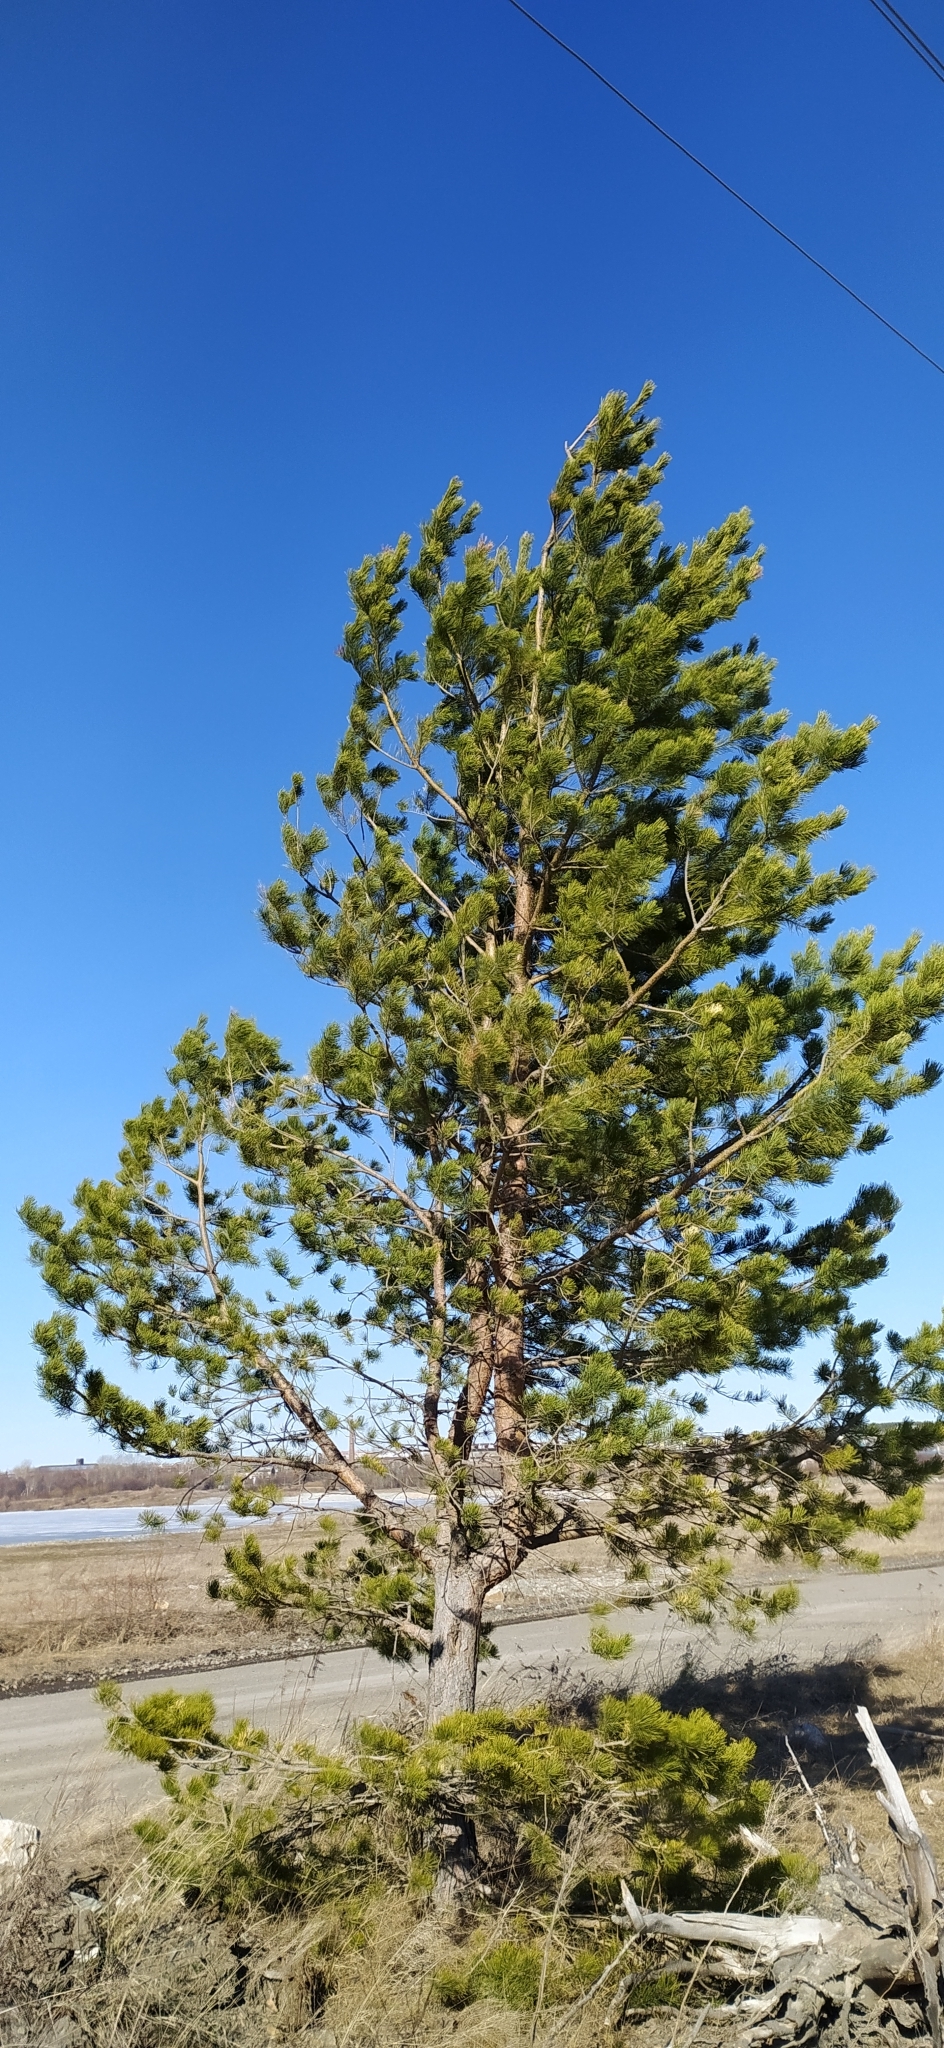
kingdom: Plantae
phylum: Tracheophyta
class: Pinopsida
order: Pinales
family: Pinaceae
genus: Pinus
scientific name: Pinus sylvestris
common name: Scots pine
